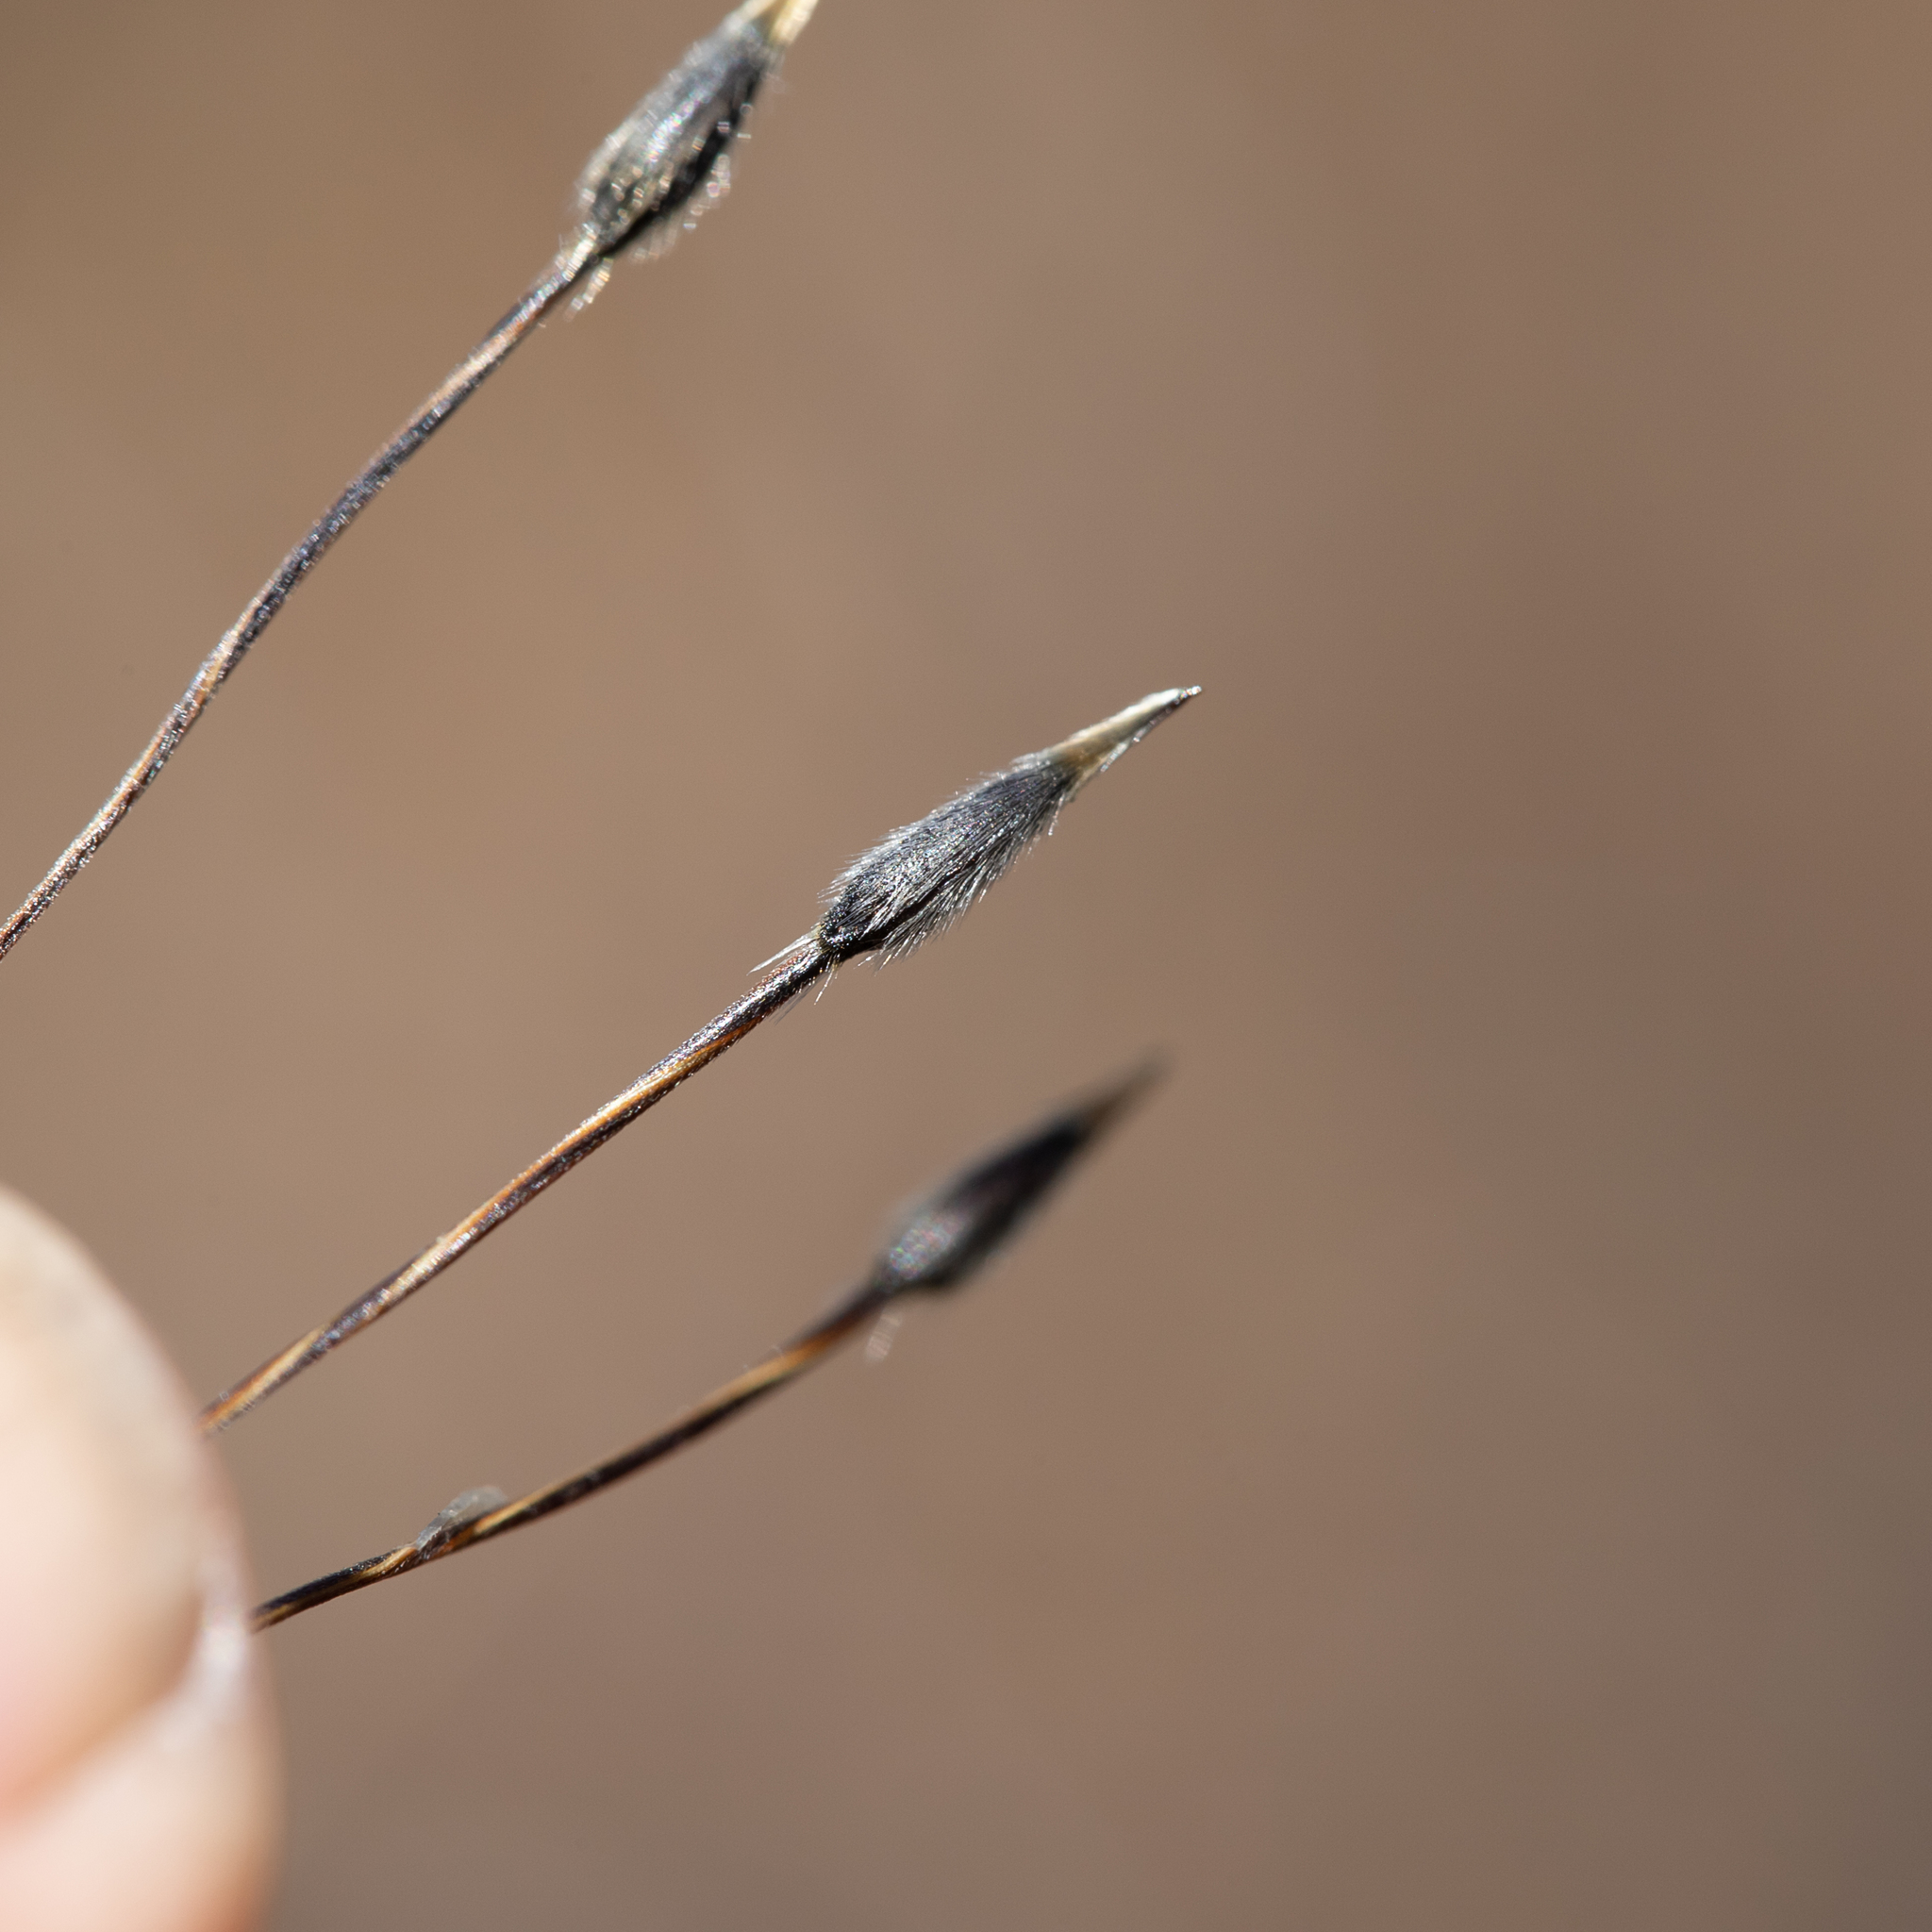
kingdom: Plantae
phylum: Tracheophyta
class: Liliopsida
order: Poales
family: Poaceae
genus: Austrostipa
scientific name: Austrostipa setacea
